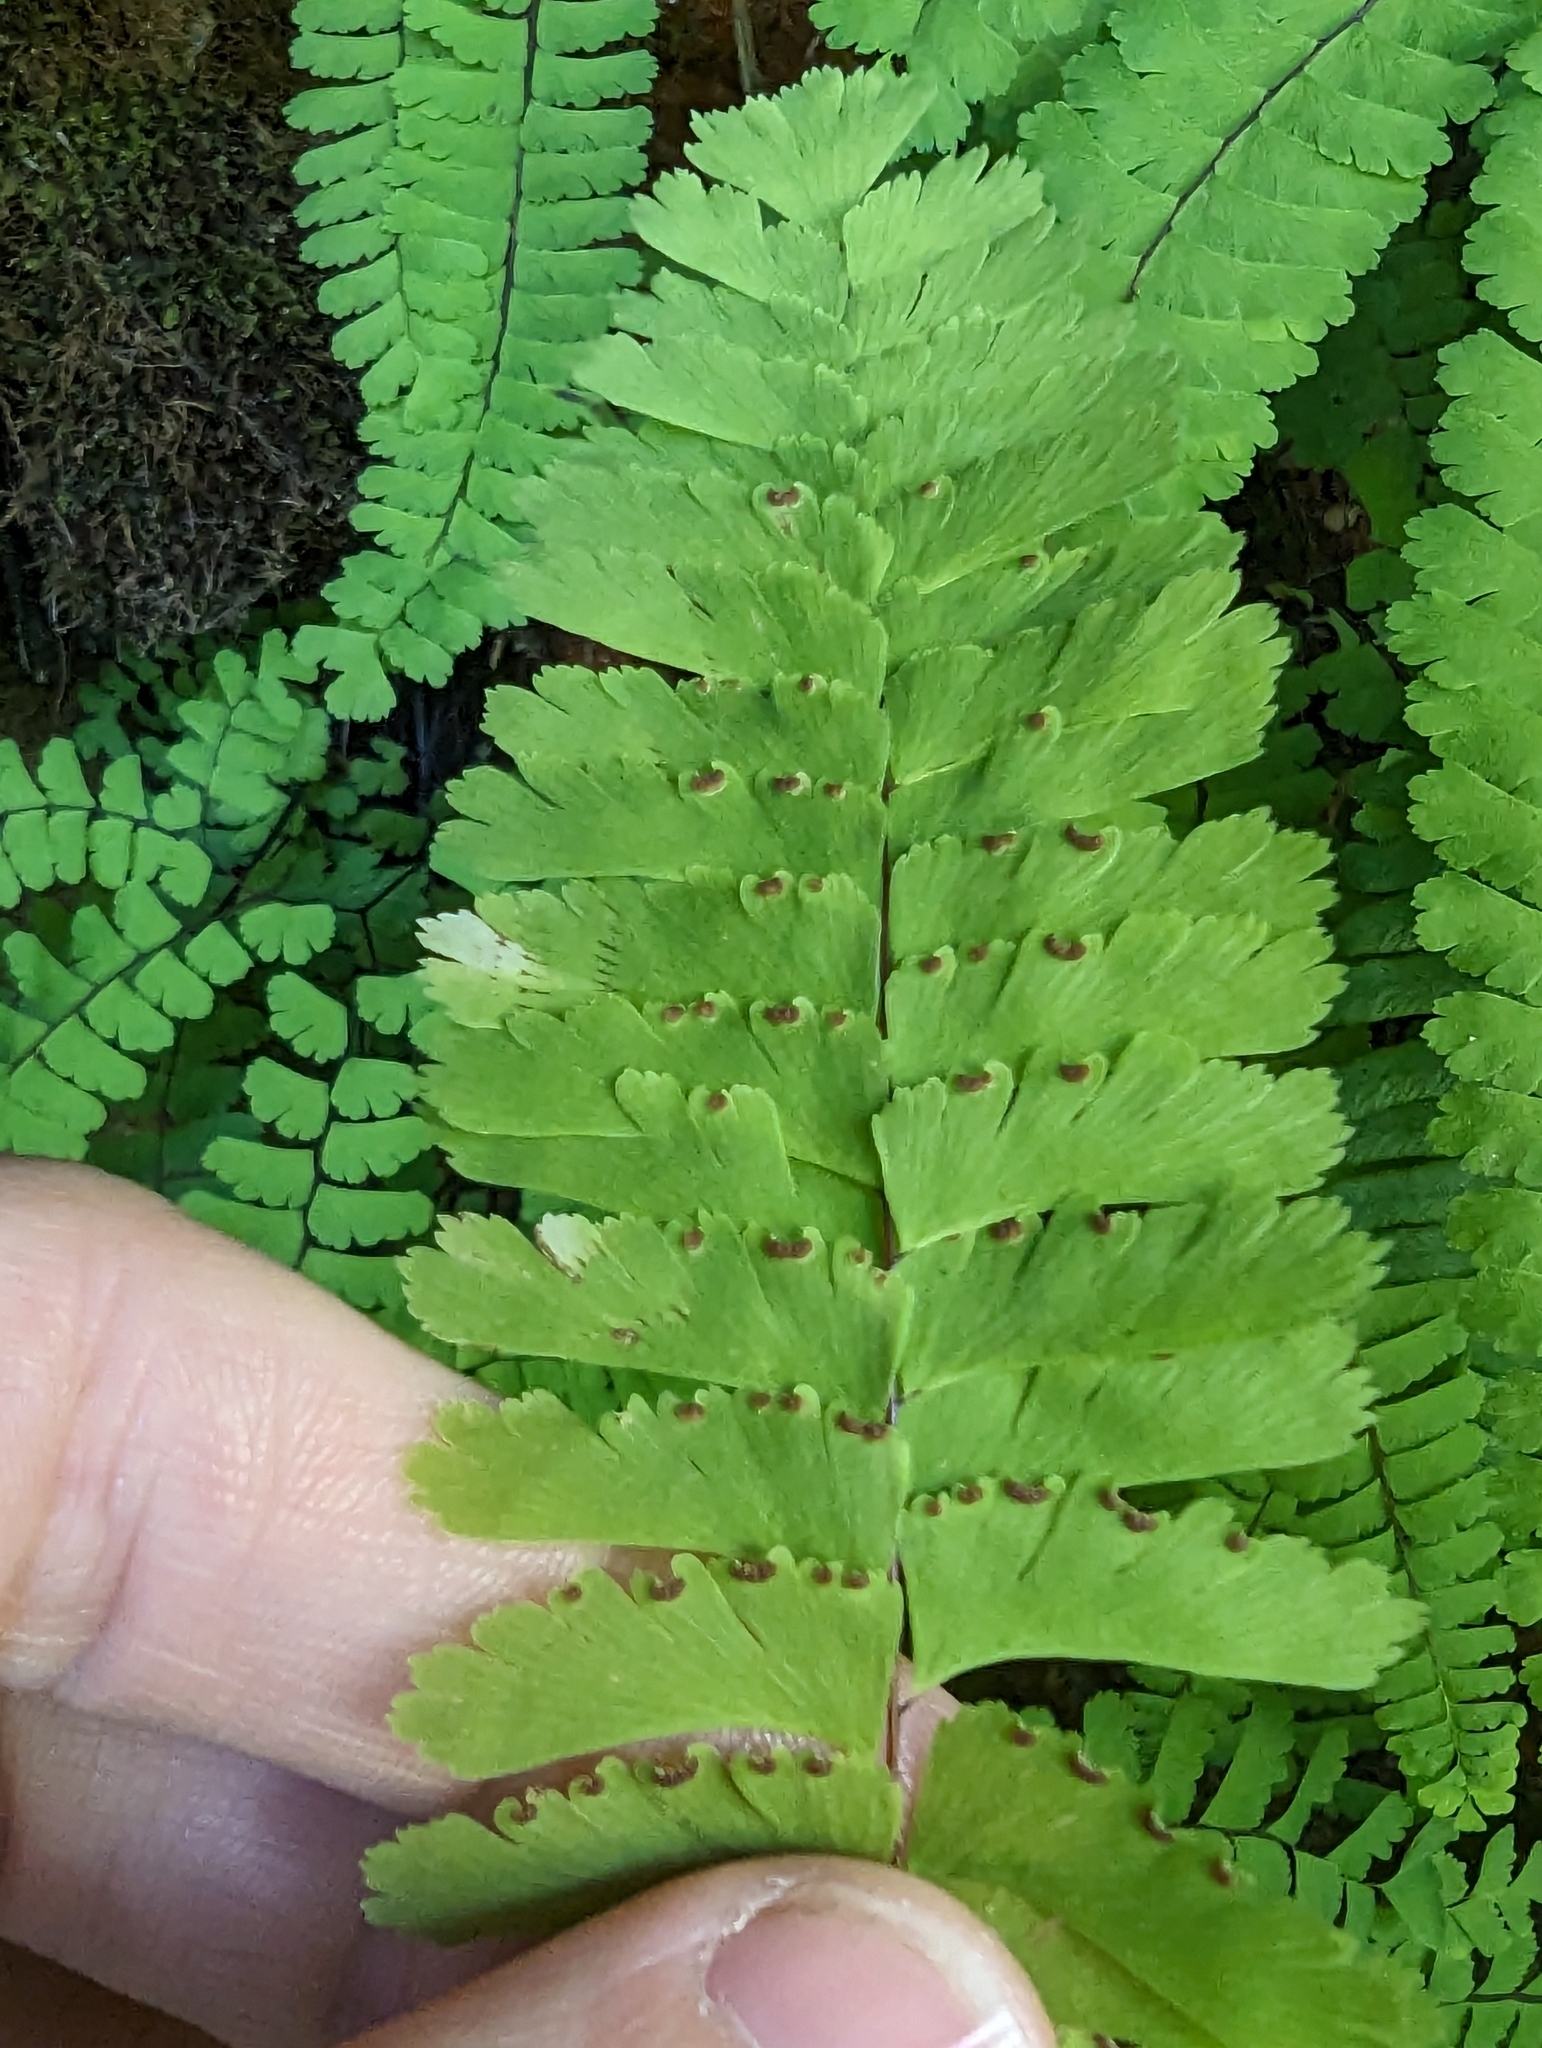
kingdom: Plantae
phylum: Tracheophyta
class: Polypodiopsida
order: Polypodiales
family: Pteridaceae
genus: Adiantum
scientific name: Adiantum aleuticum
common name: Aleutian maidenhair fern
